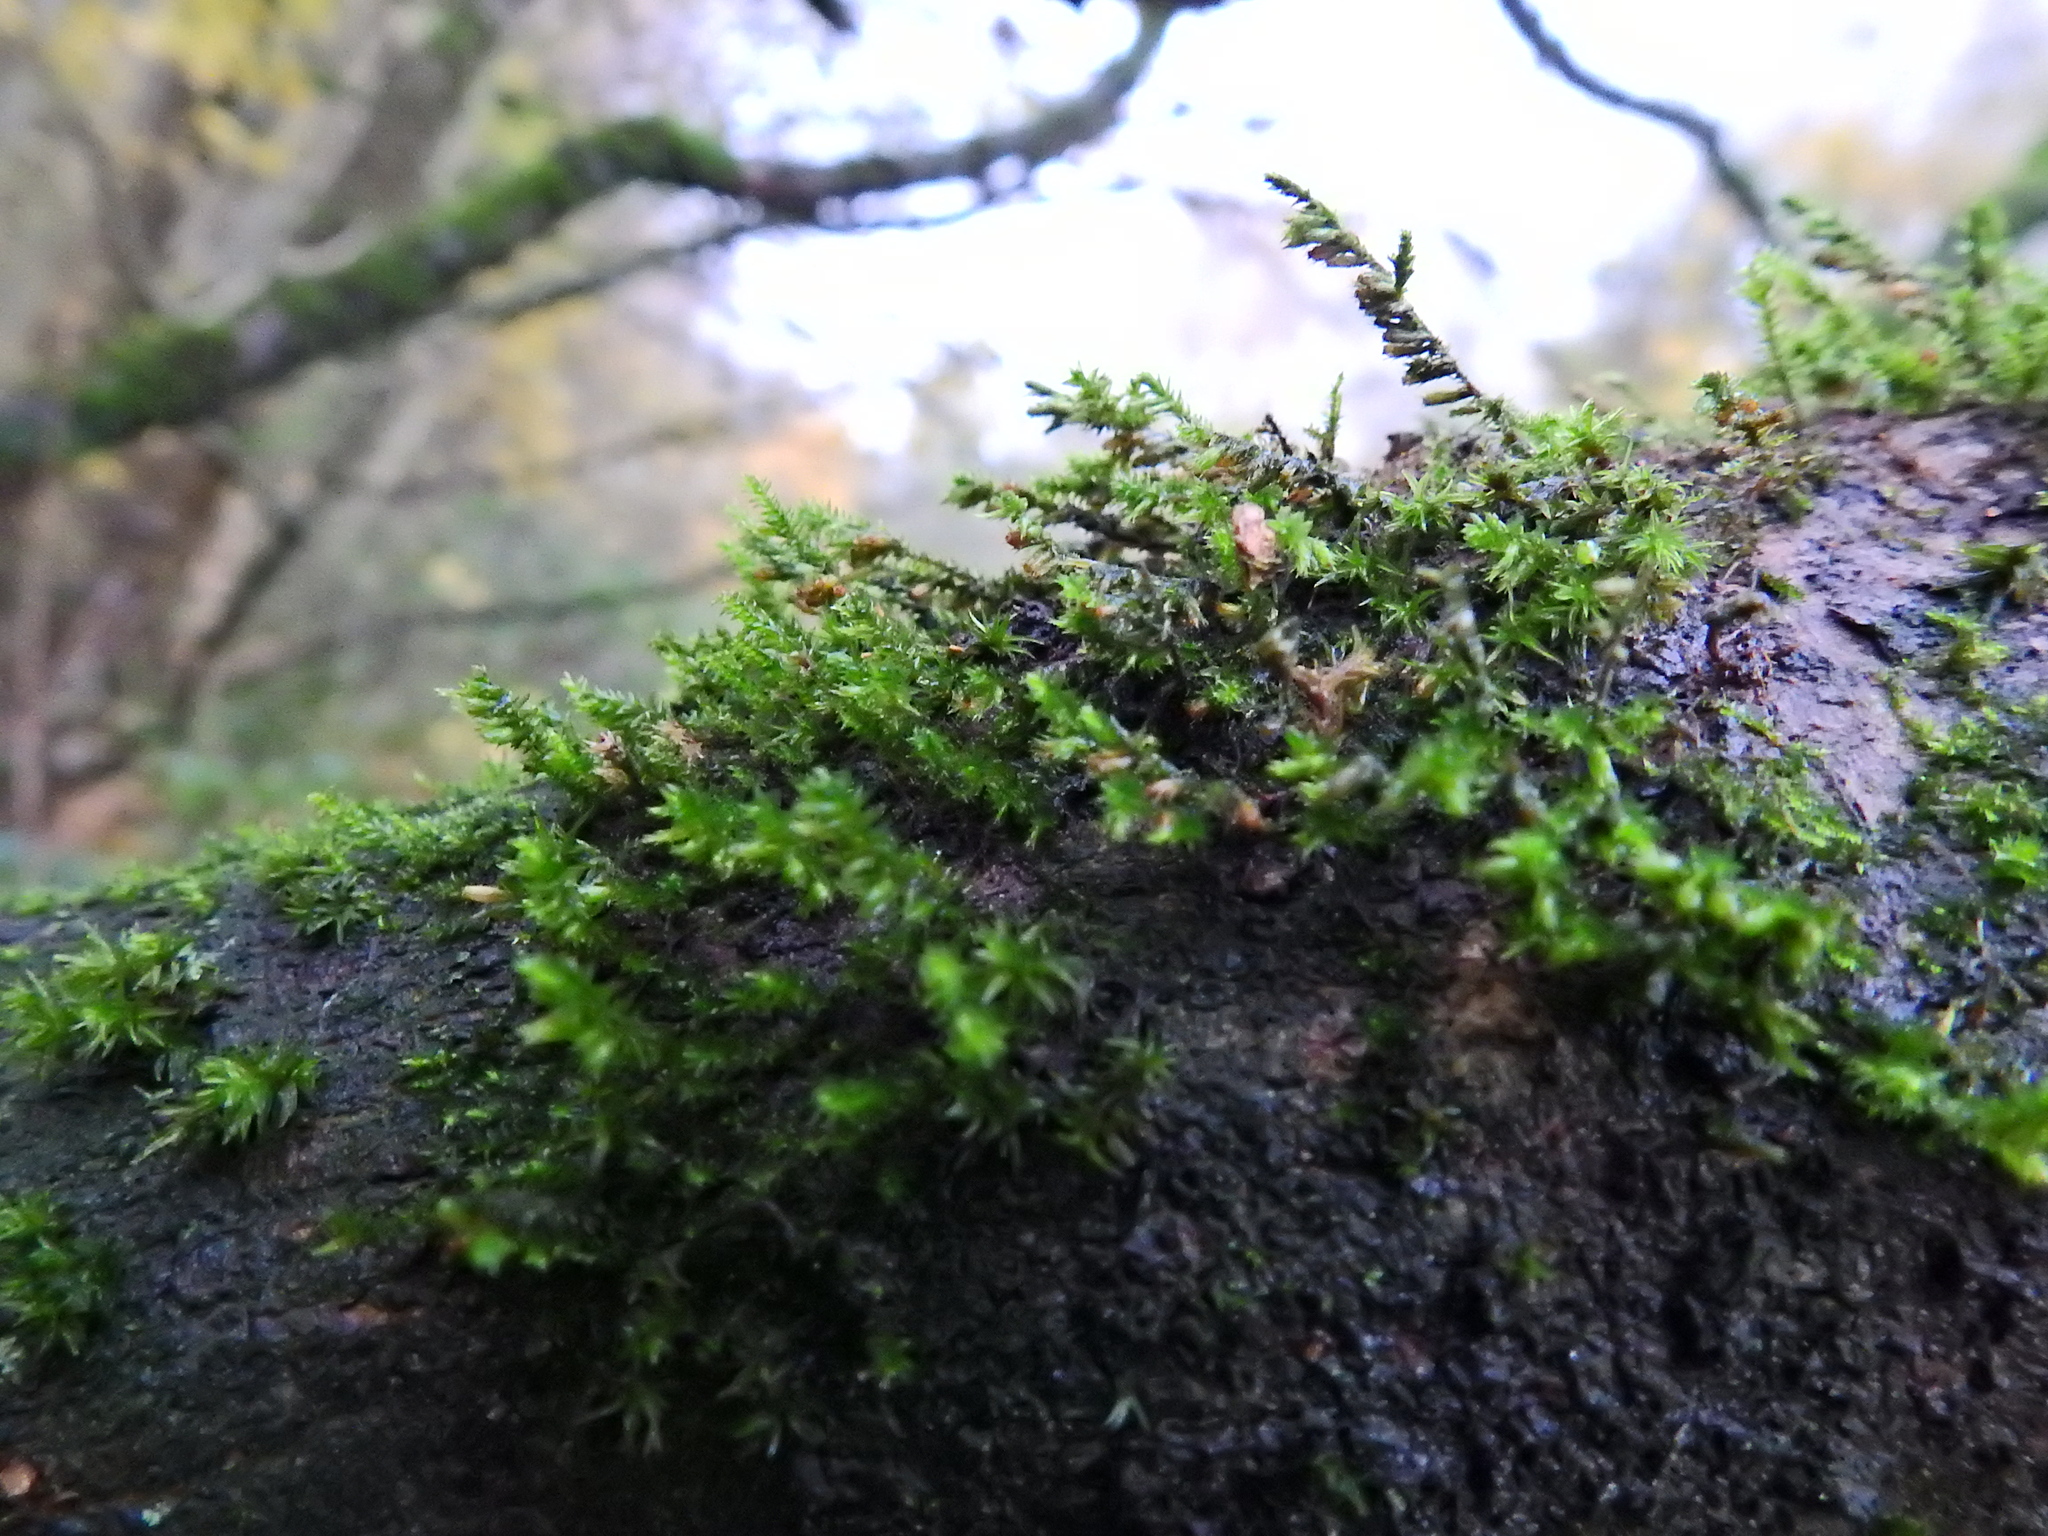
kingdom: Plantae
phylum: Bryophyta
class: Bryopsida
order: Hypnales
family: Cryphaeaceae
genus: Cryphaea
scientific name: Cryphaea heteromalla
